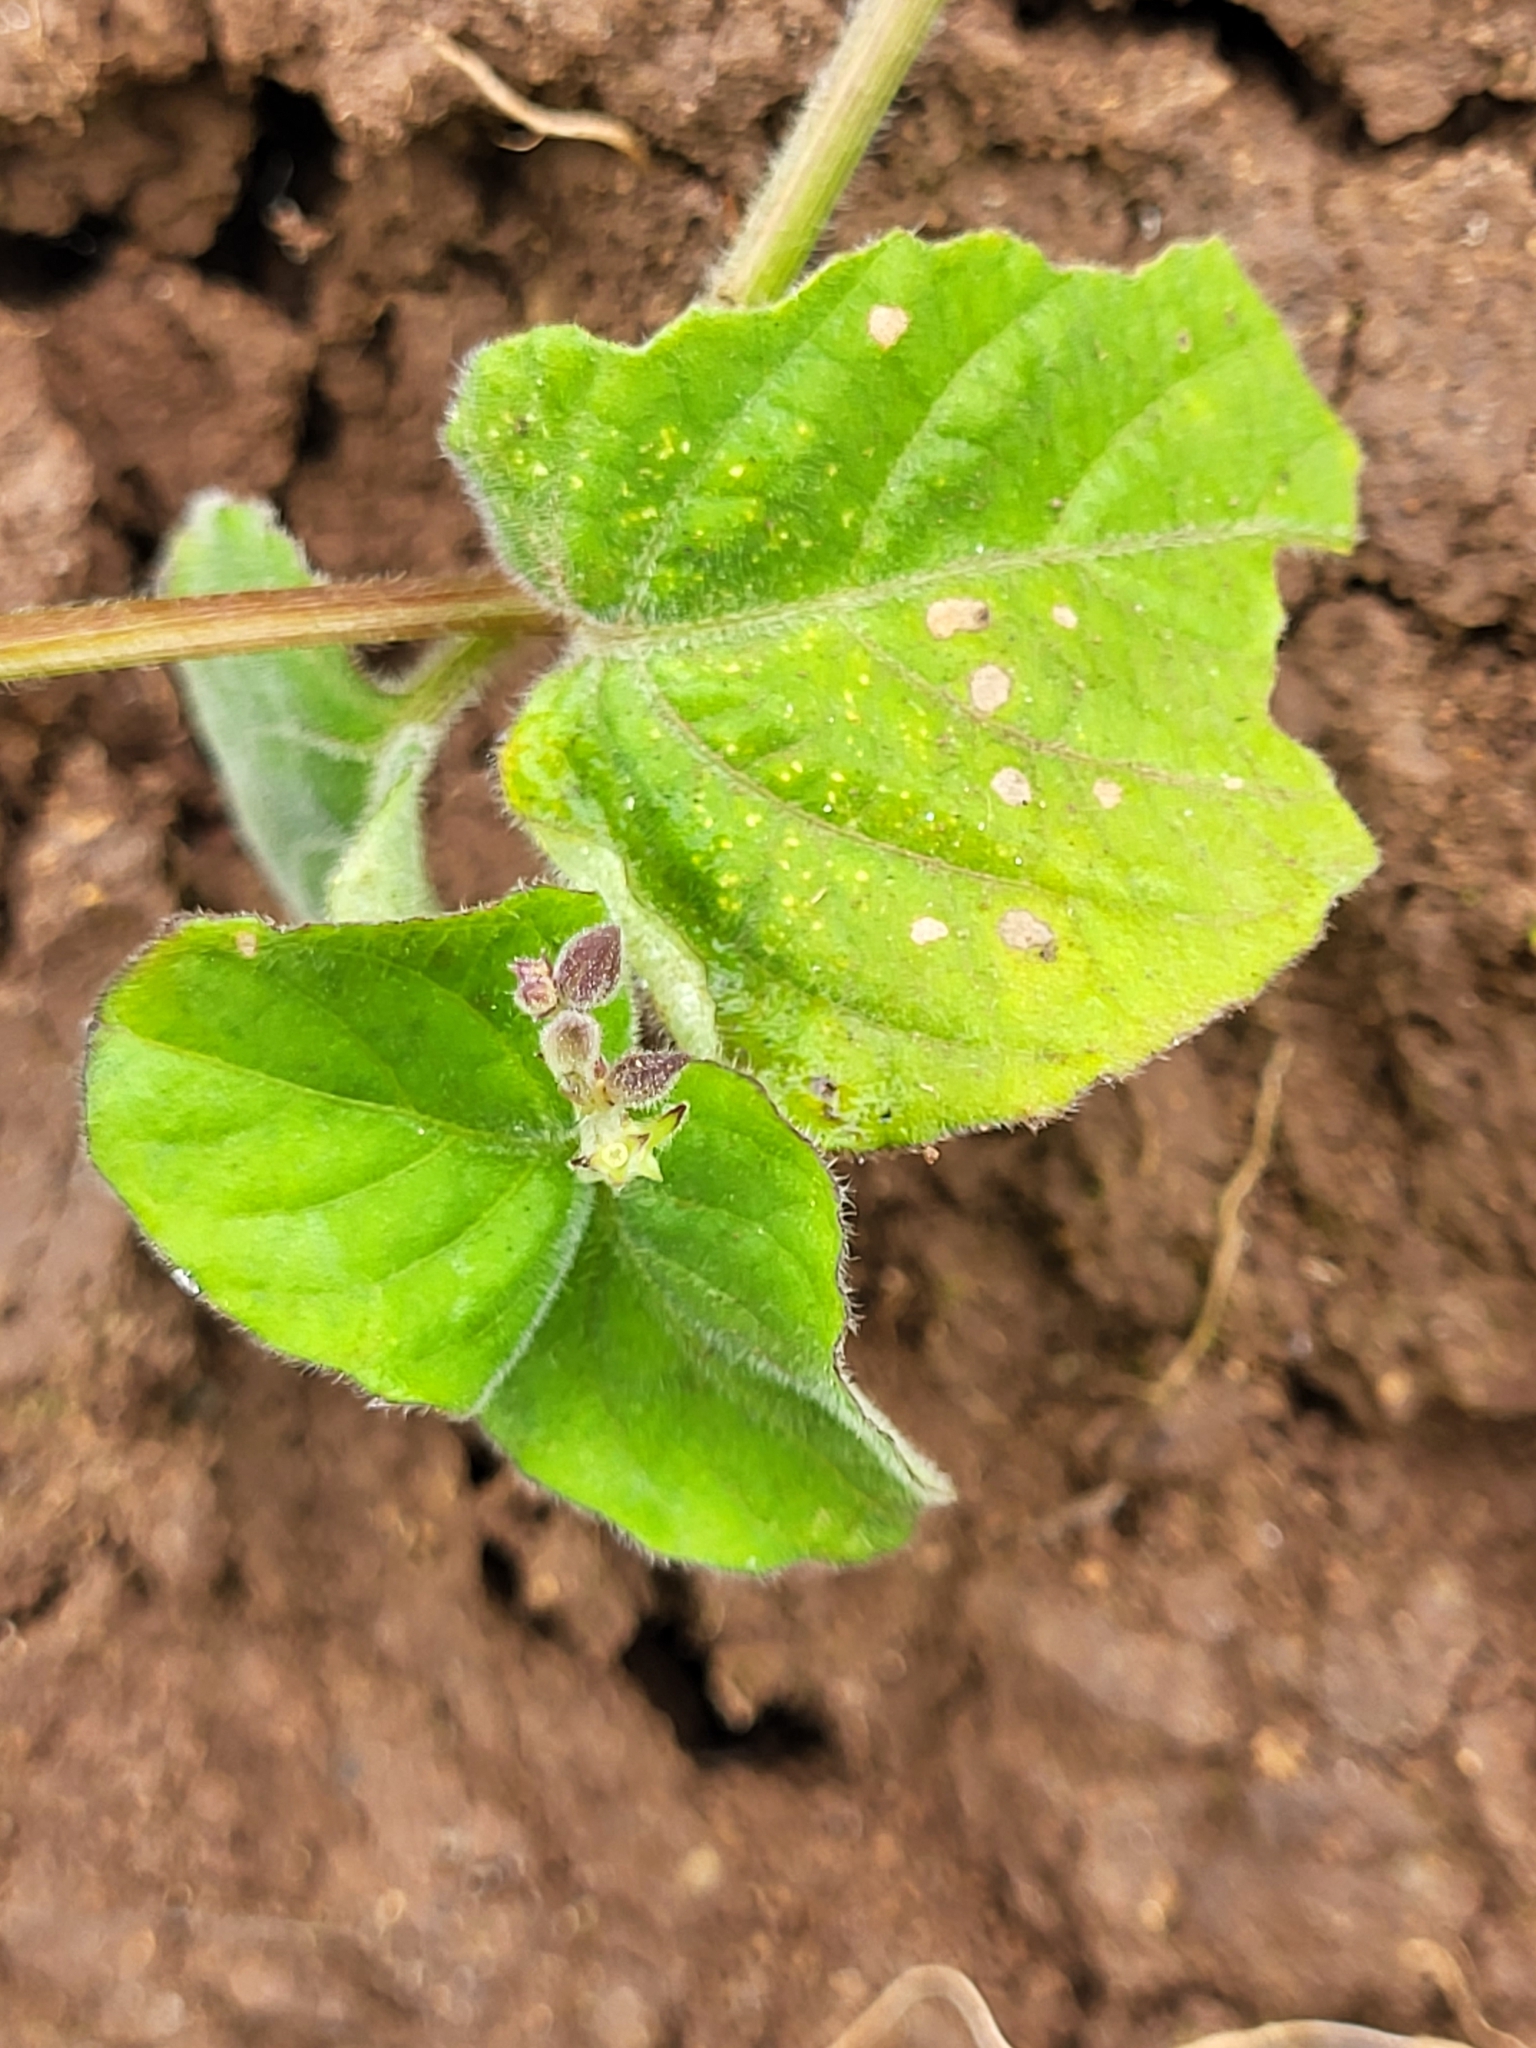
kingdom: Plantae
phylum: Tracheophyta
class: Magnoliopsida
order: Lamiales
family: Acanthaceae
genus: Asystasia
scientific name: Asystasia intrusa
